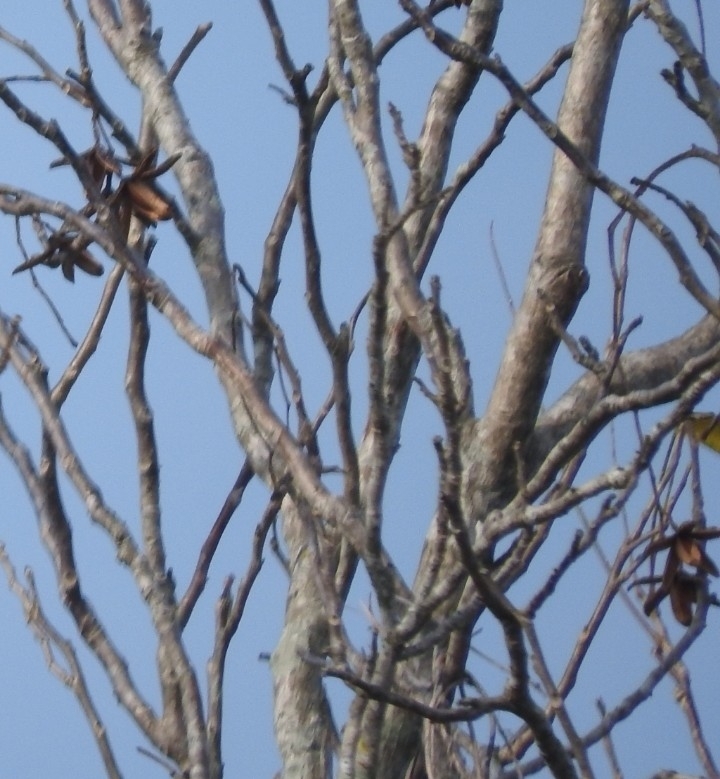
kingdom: Plantae
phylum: Tracheophyta
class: Magnoliopsida
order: Sapindales
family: Meliaceae
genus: Cedrela
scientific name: Cedrela odorata
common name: Red cedar
